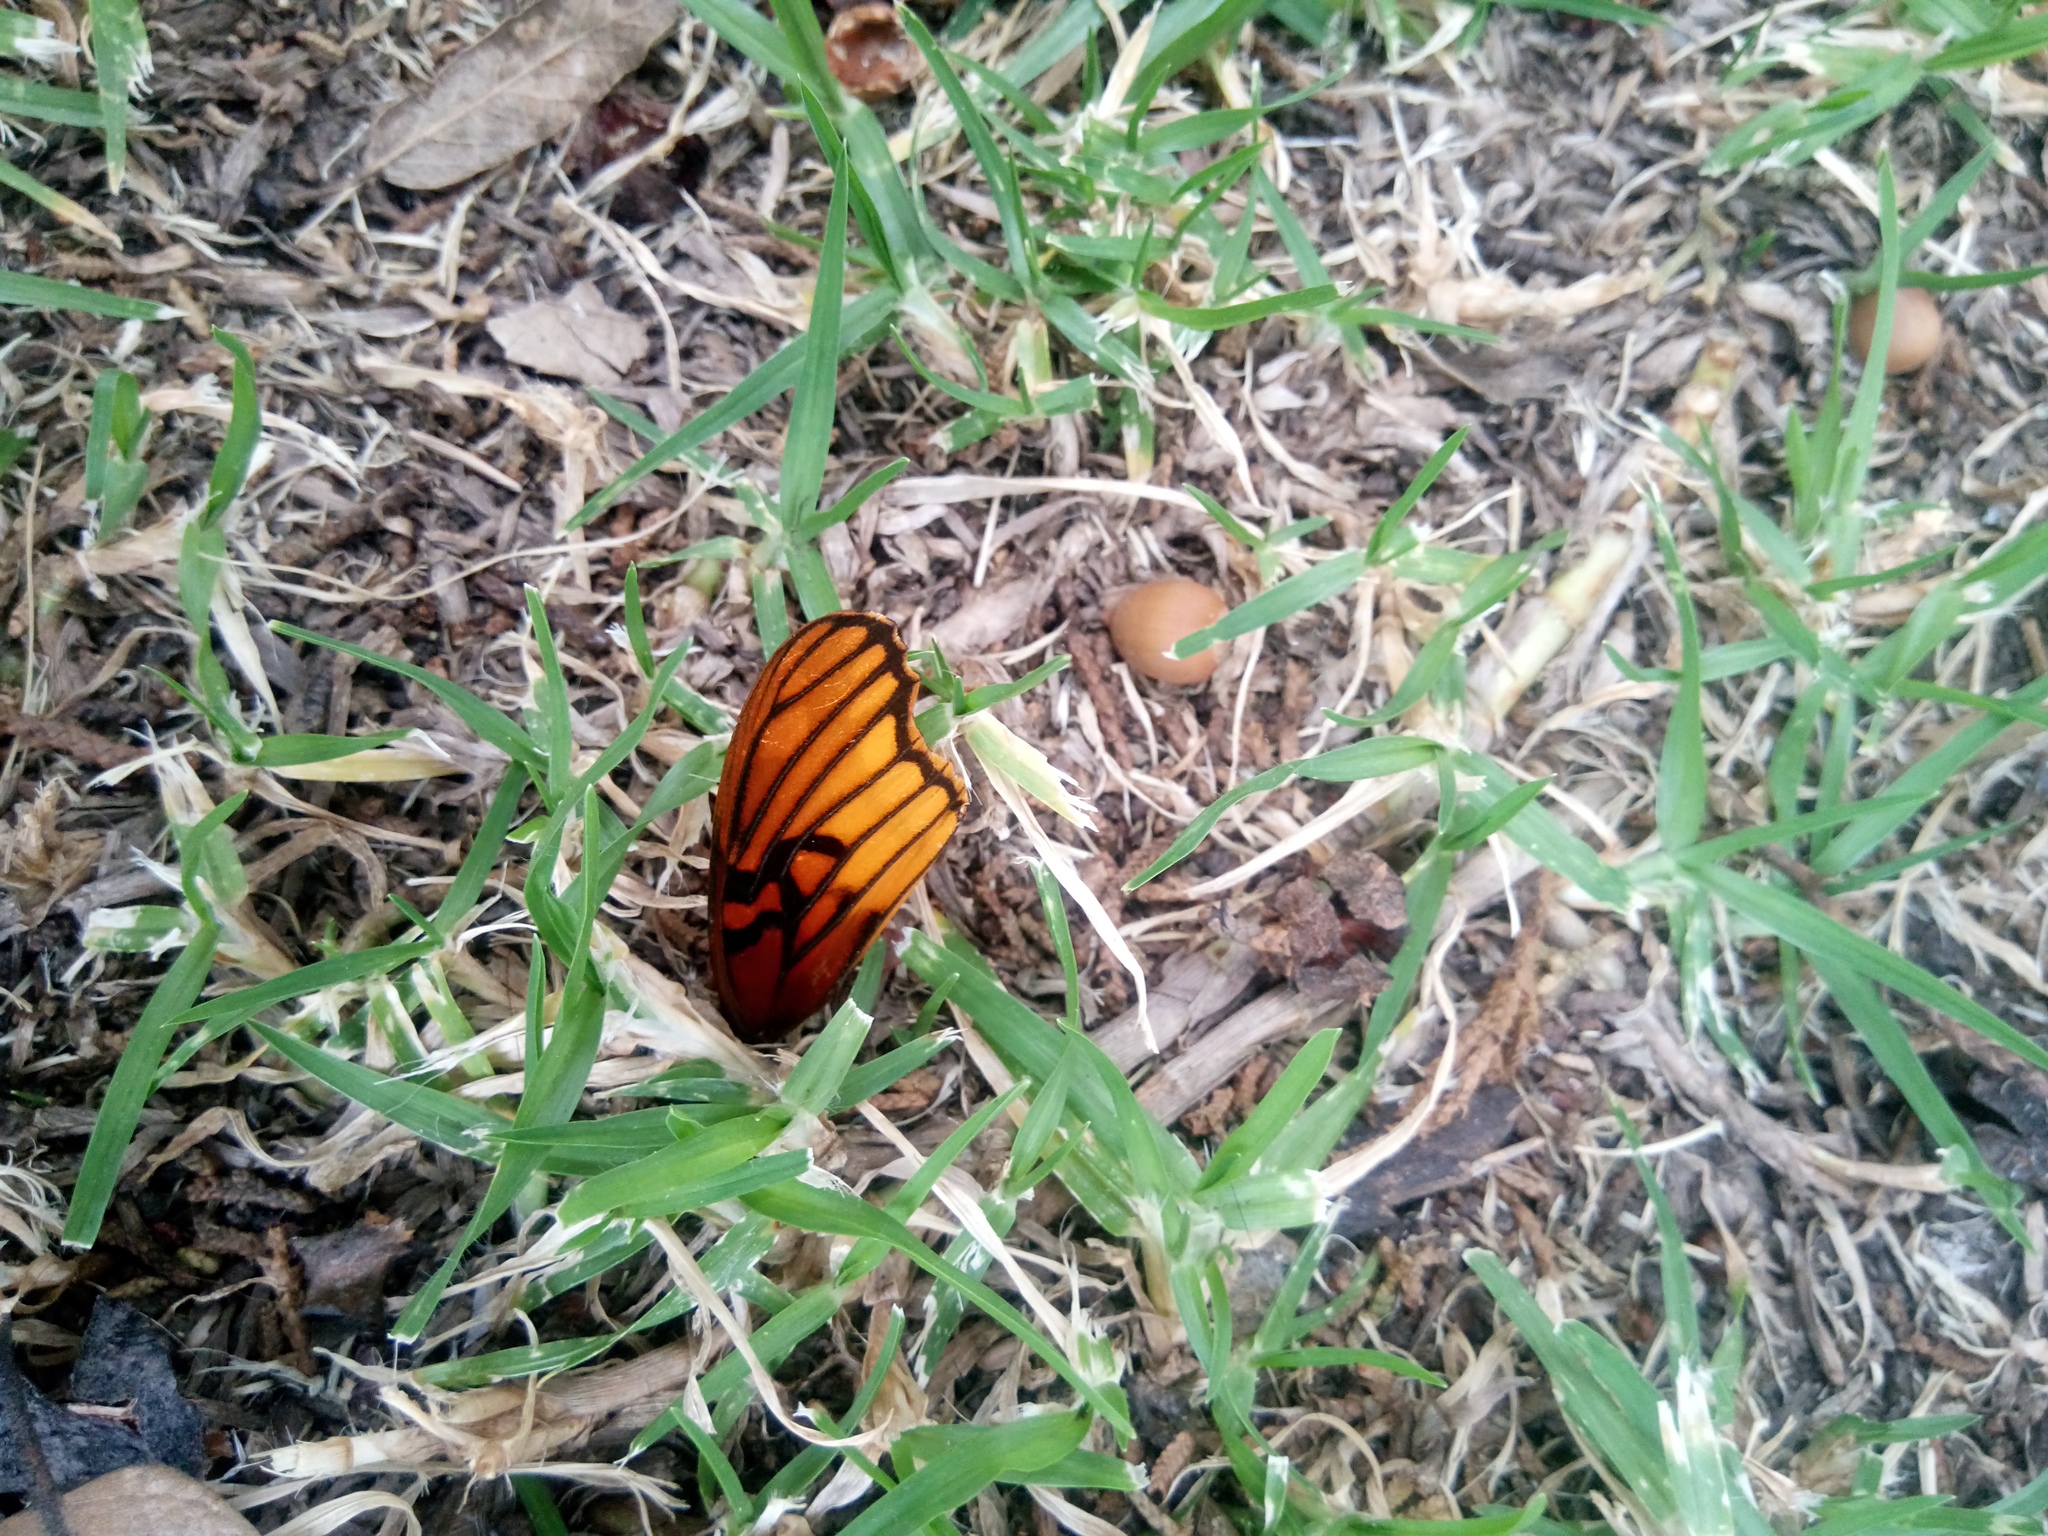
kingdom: Animalia
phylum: Arthropoda
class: Insecta
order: Lepidoptera
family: Nymphalidae
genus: Dione
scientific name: Dione moneta
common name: Mexican silverspot
